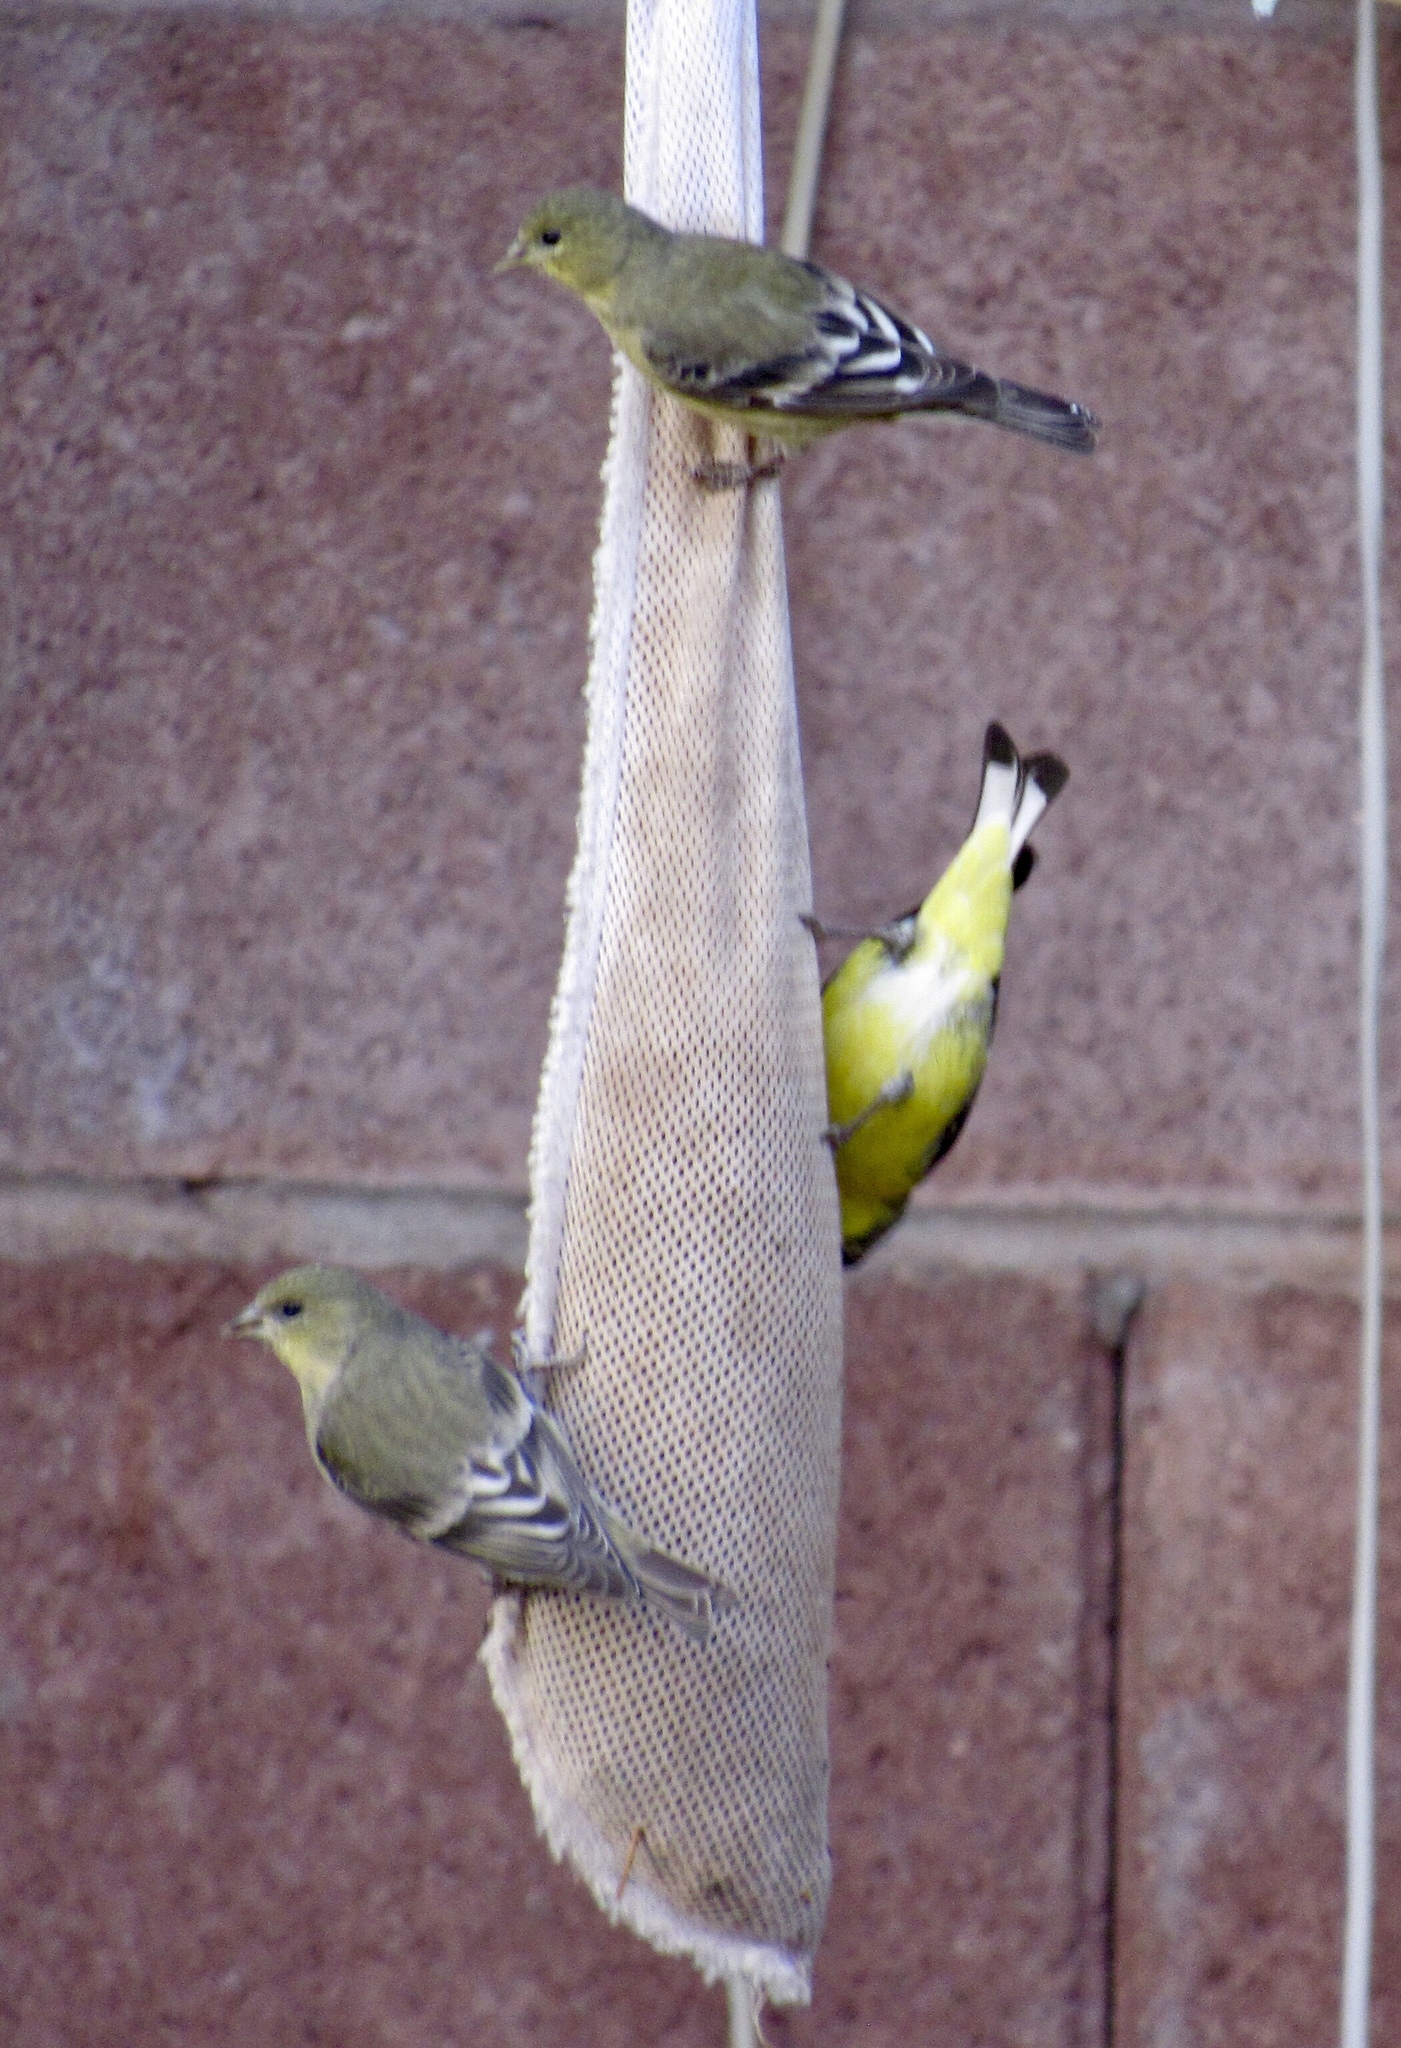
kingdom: Animalia
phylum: Chordata
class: Aves
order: Passeriformes
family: Fringillidae
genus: Spinus
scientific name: Spinus psaltria
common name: Lesser goldfinch
